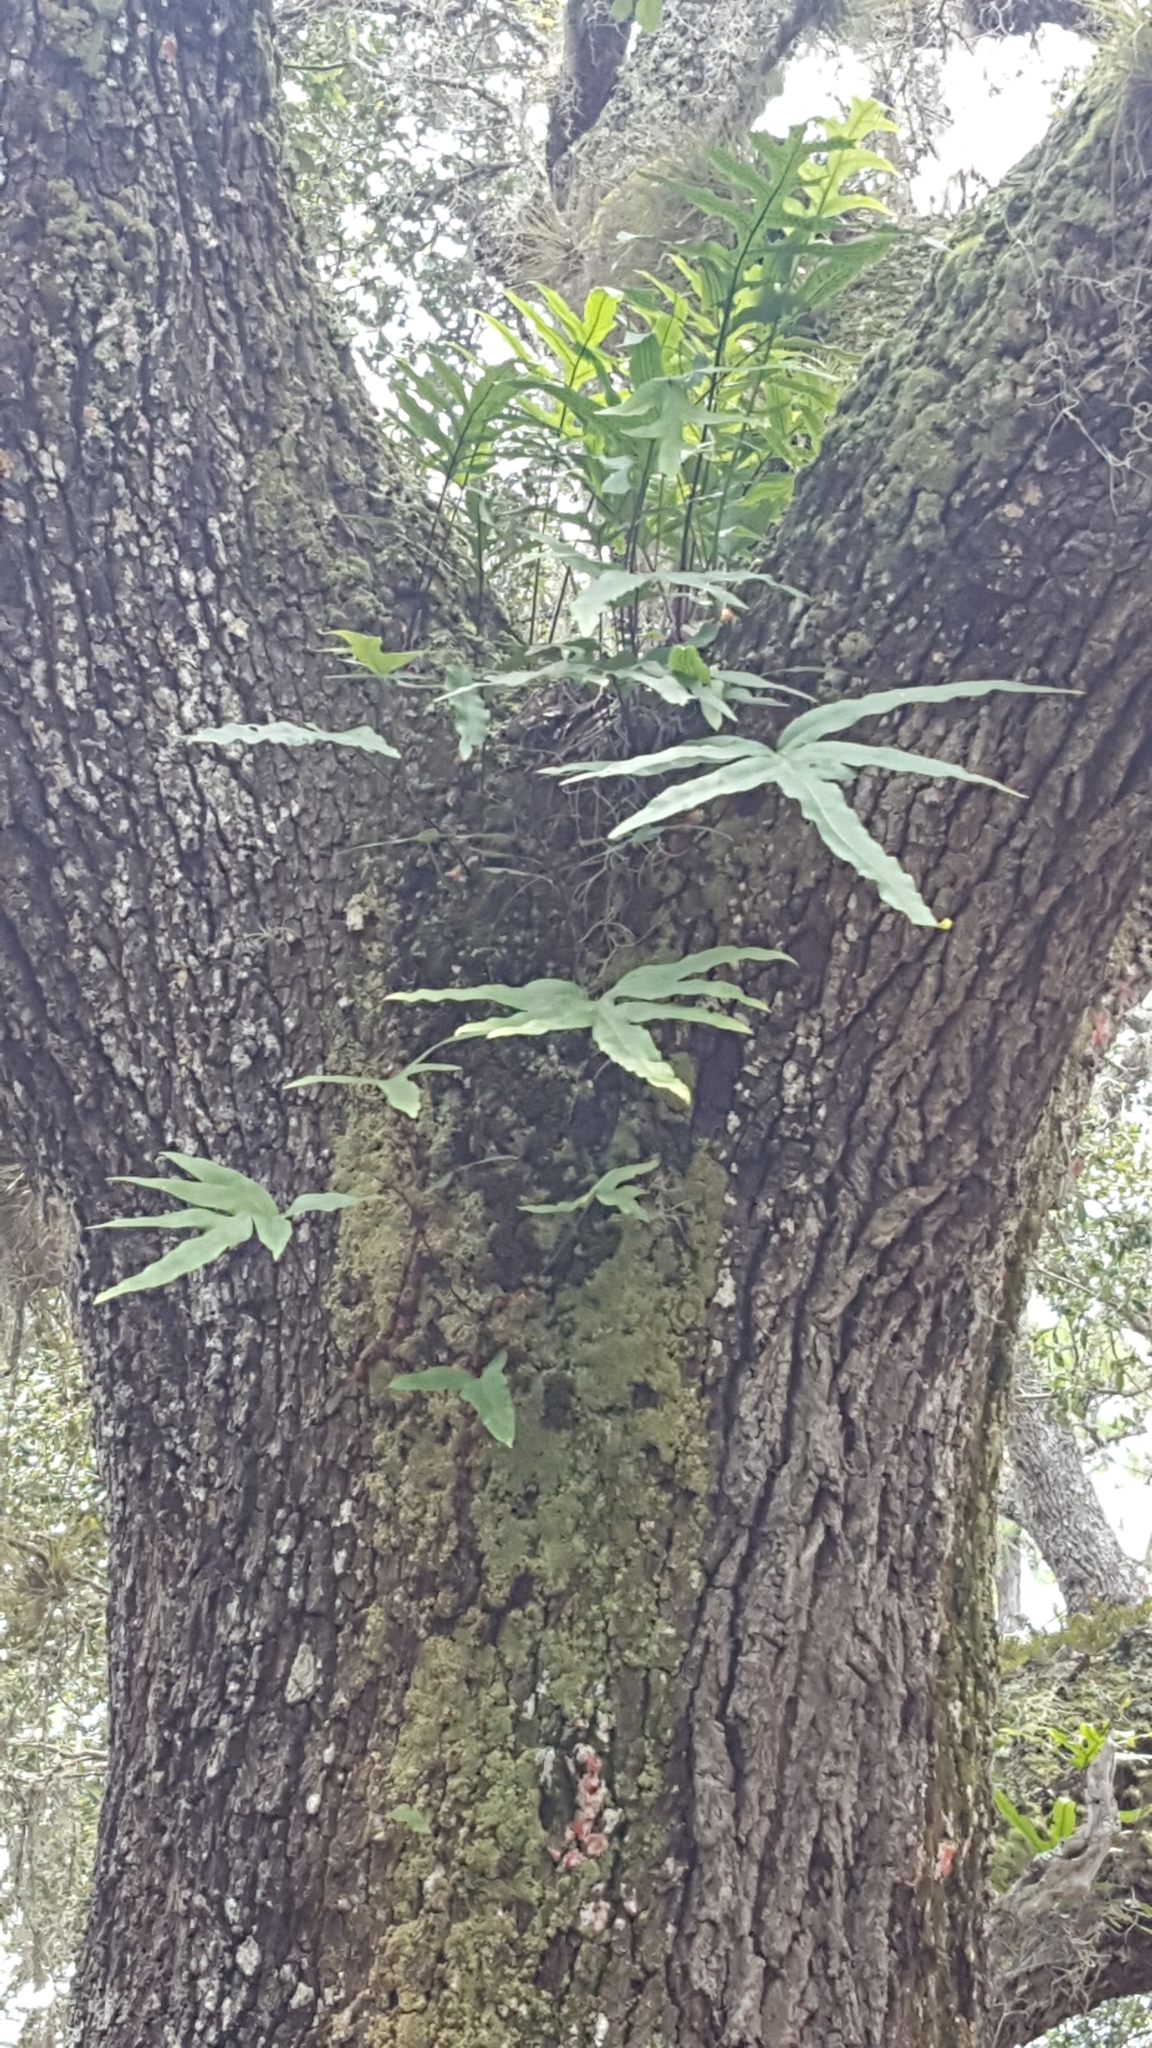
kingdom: Plantae
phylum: Tracheophyta
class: Polypodiopsida
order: Polypodiales
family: Polypodiaceae
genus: Phlebodium
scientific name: Phlebodium aureum
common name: Gold-foot fern
